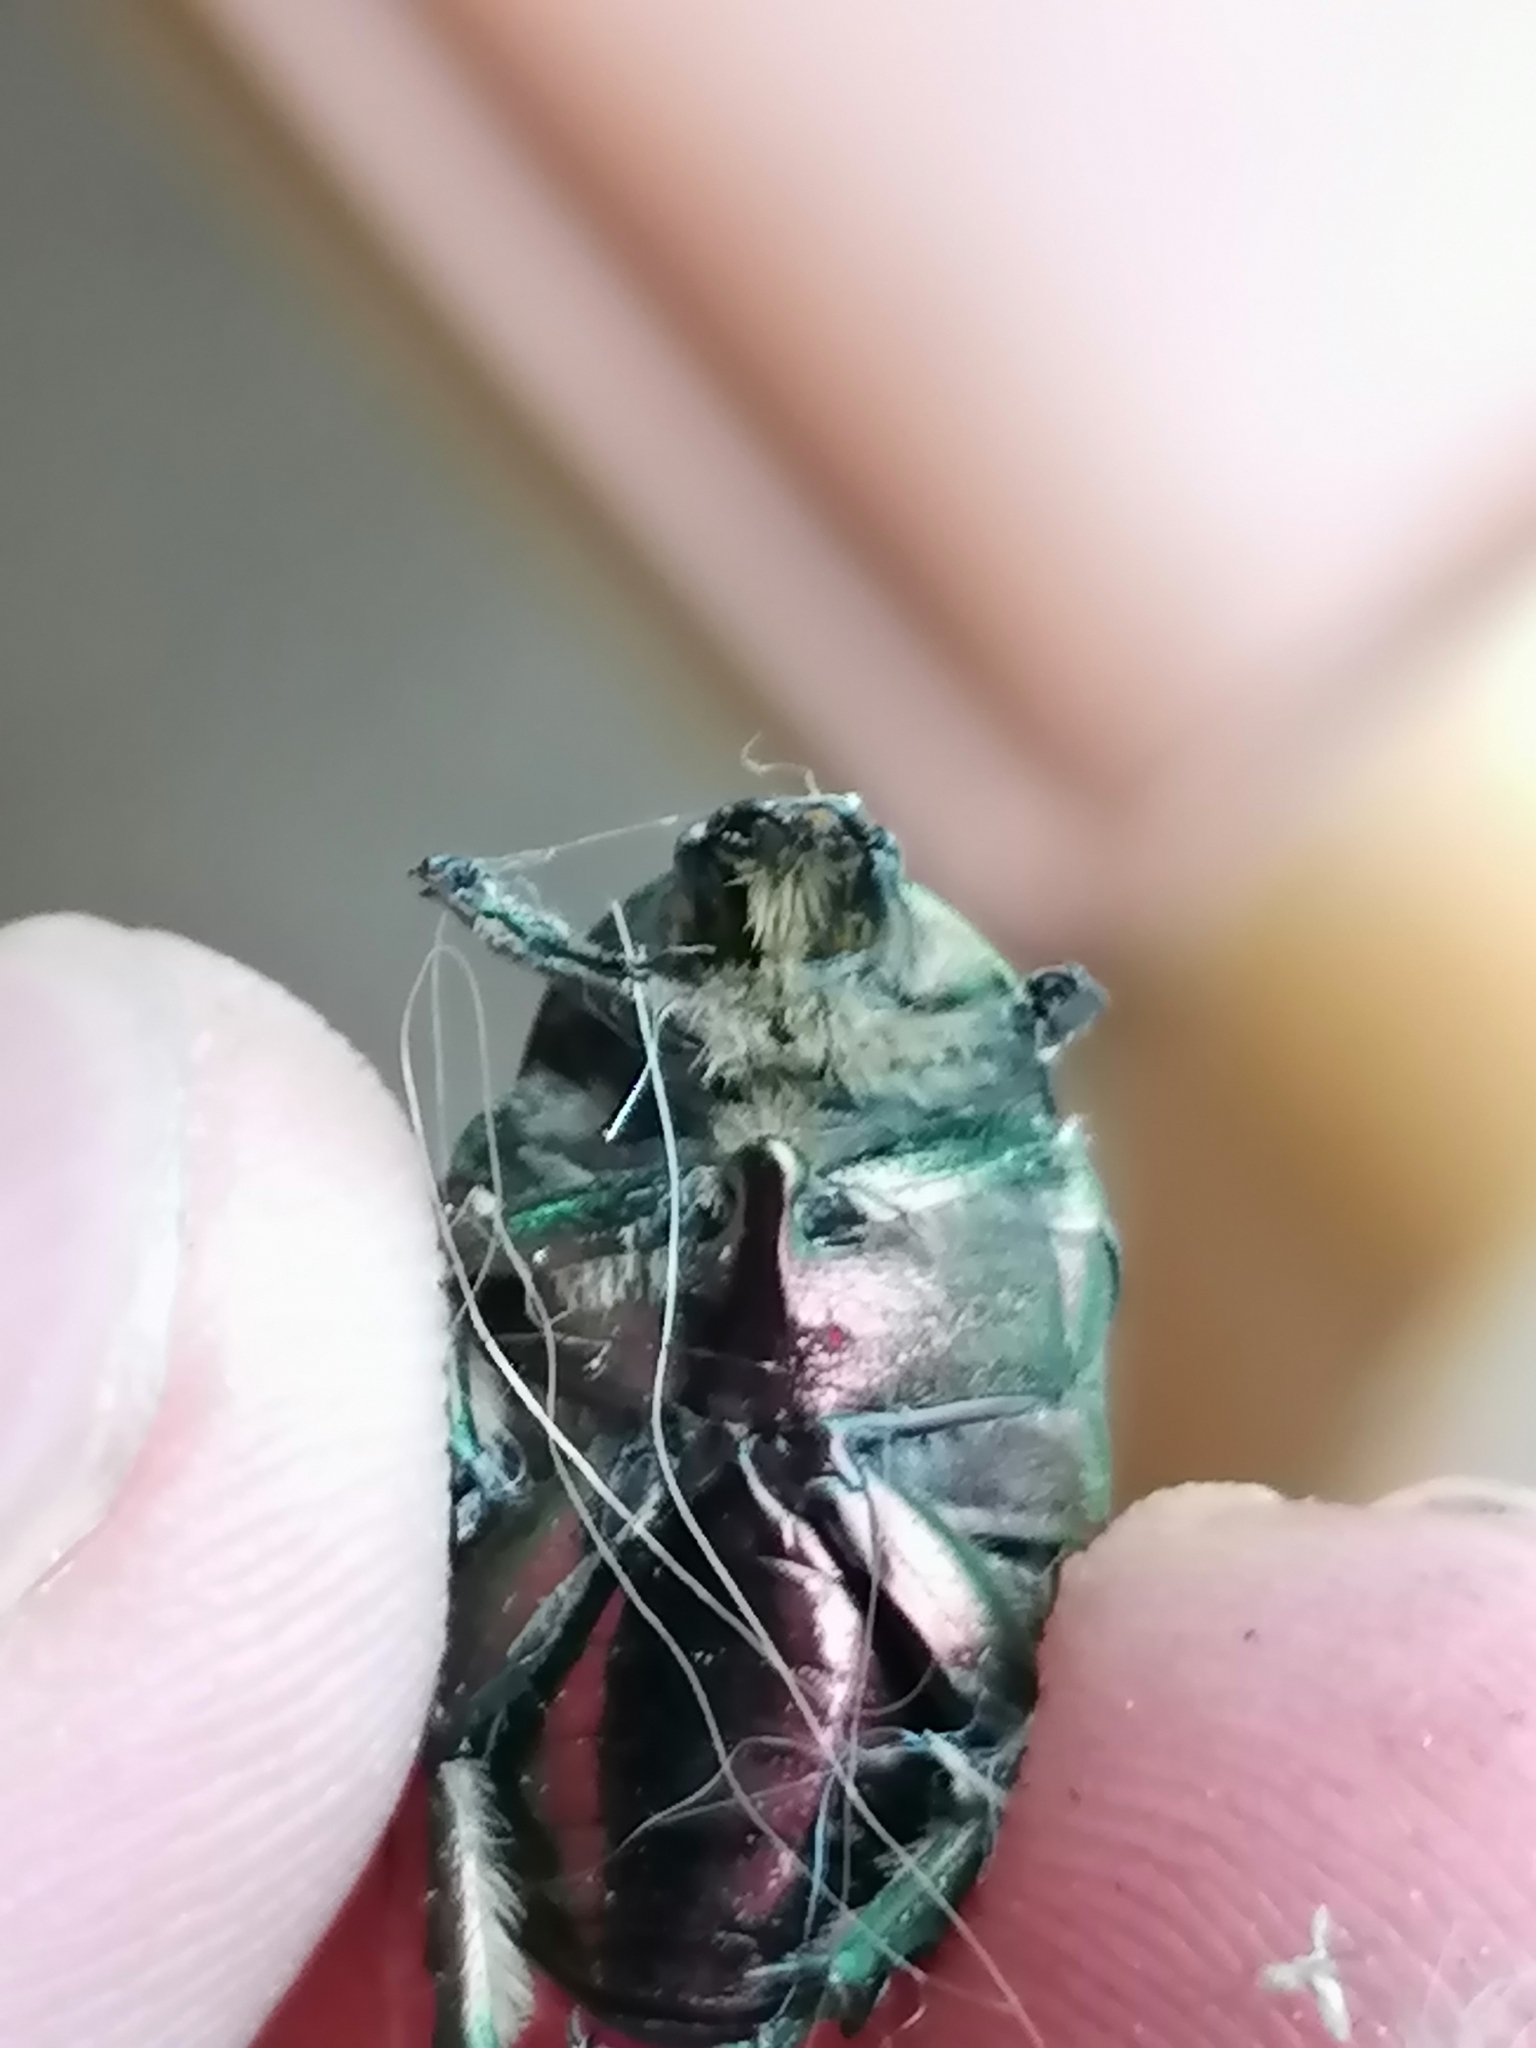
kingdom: Animalia
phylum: Arthropoda
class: Insecta
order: Coleoptera
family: Scarabaeidae
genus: Cetonia
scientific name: Cetonia aurata
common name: Rose chafer
